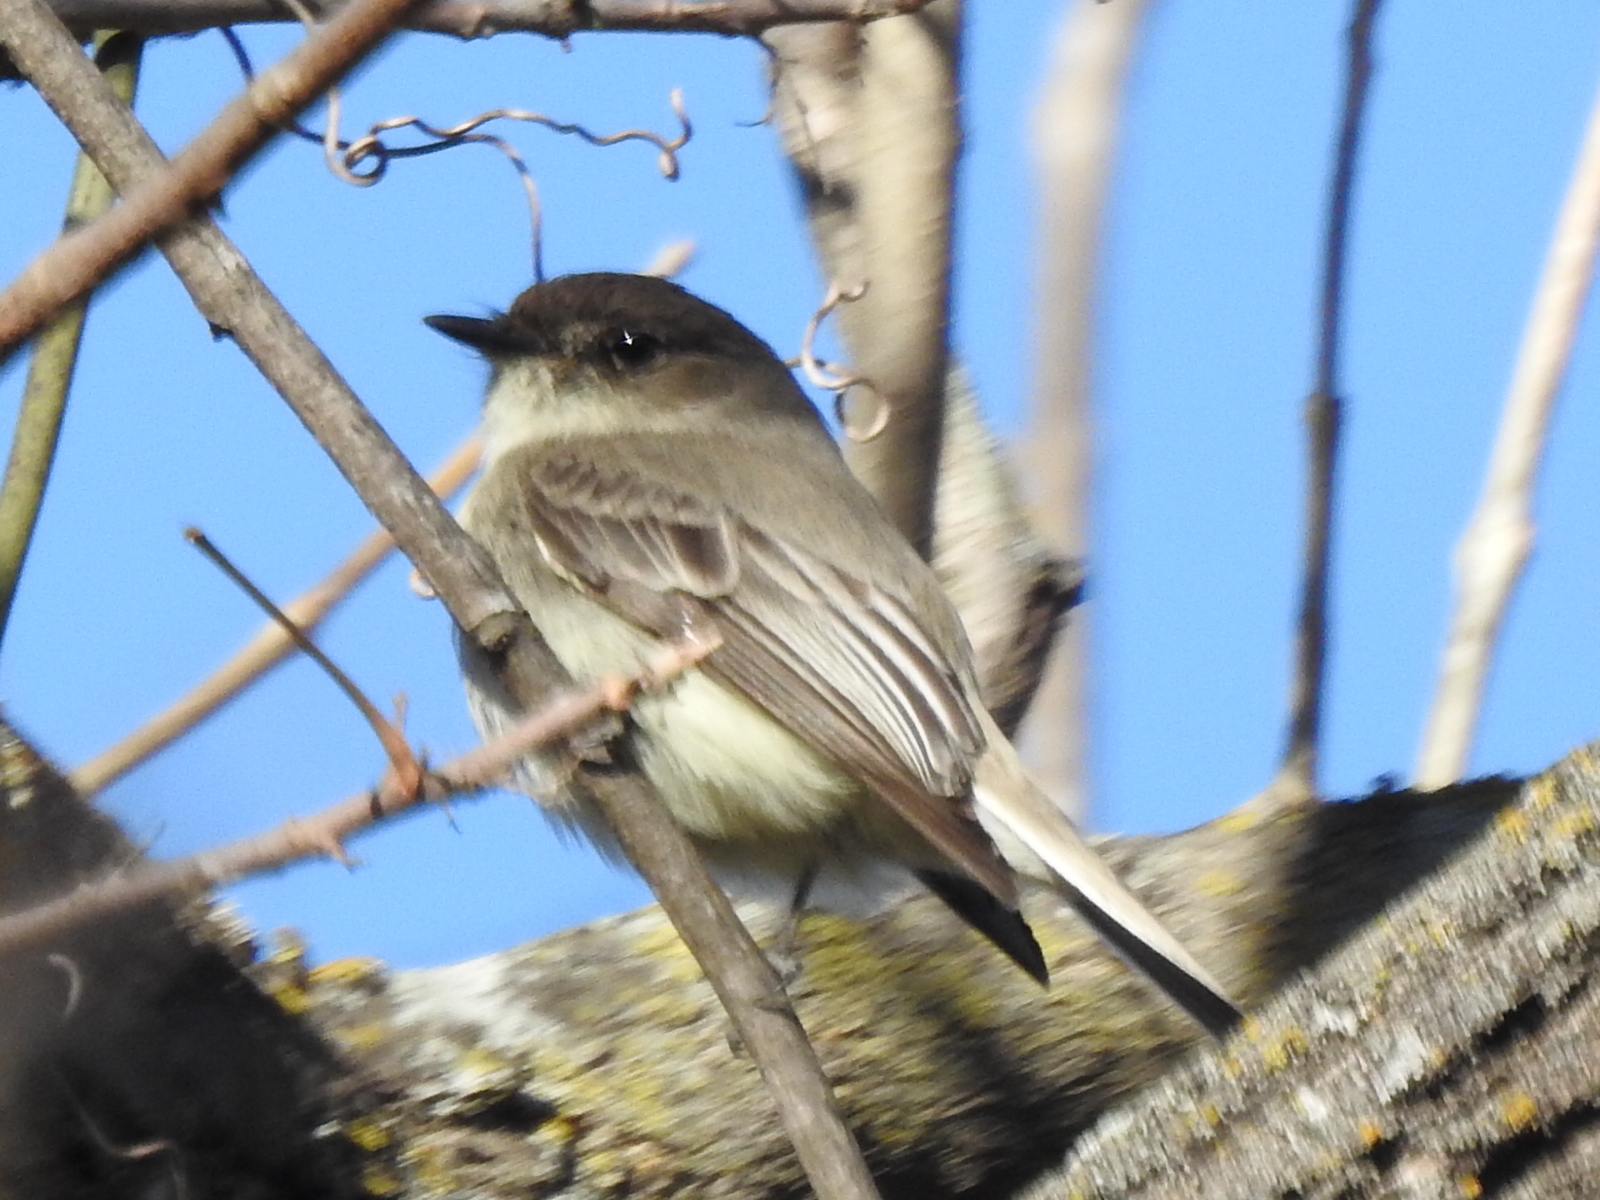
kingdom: Animalia
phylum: Chordata
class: Aves
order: Passeriformes
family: Tyrannidae
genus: Sayornis
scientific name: Sayornis phoebe
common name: Eastern phoebe
